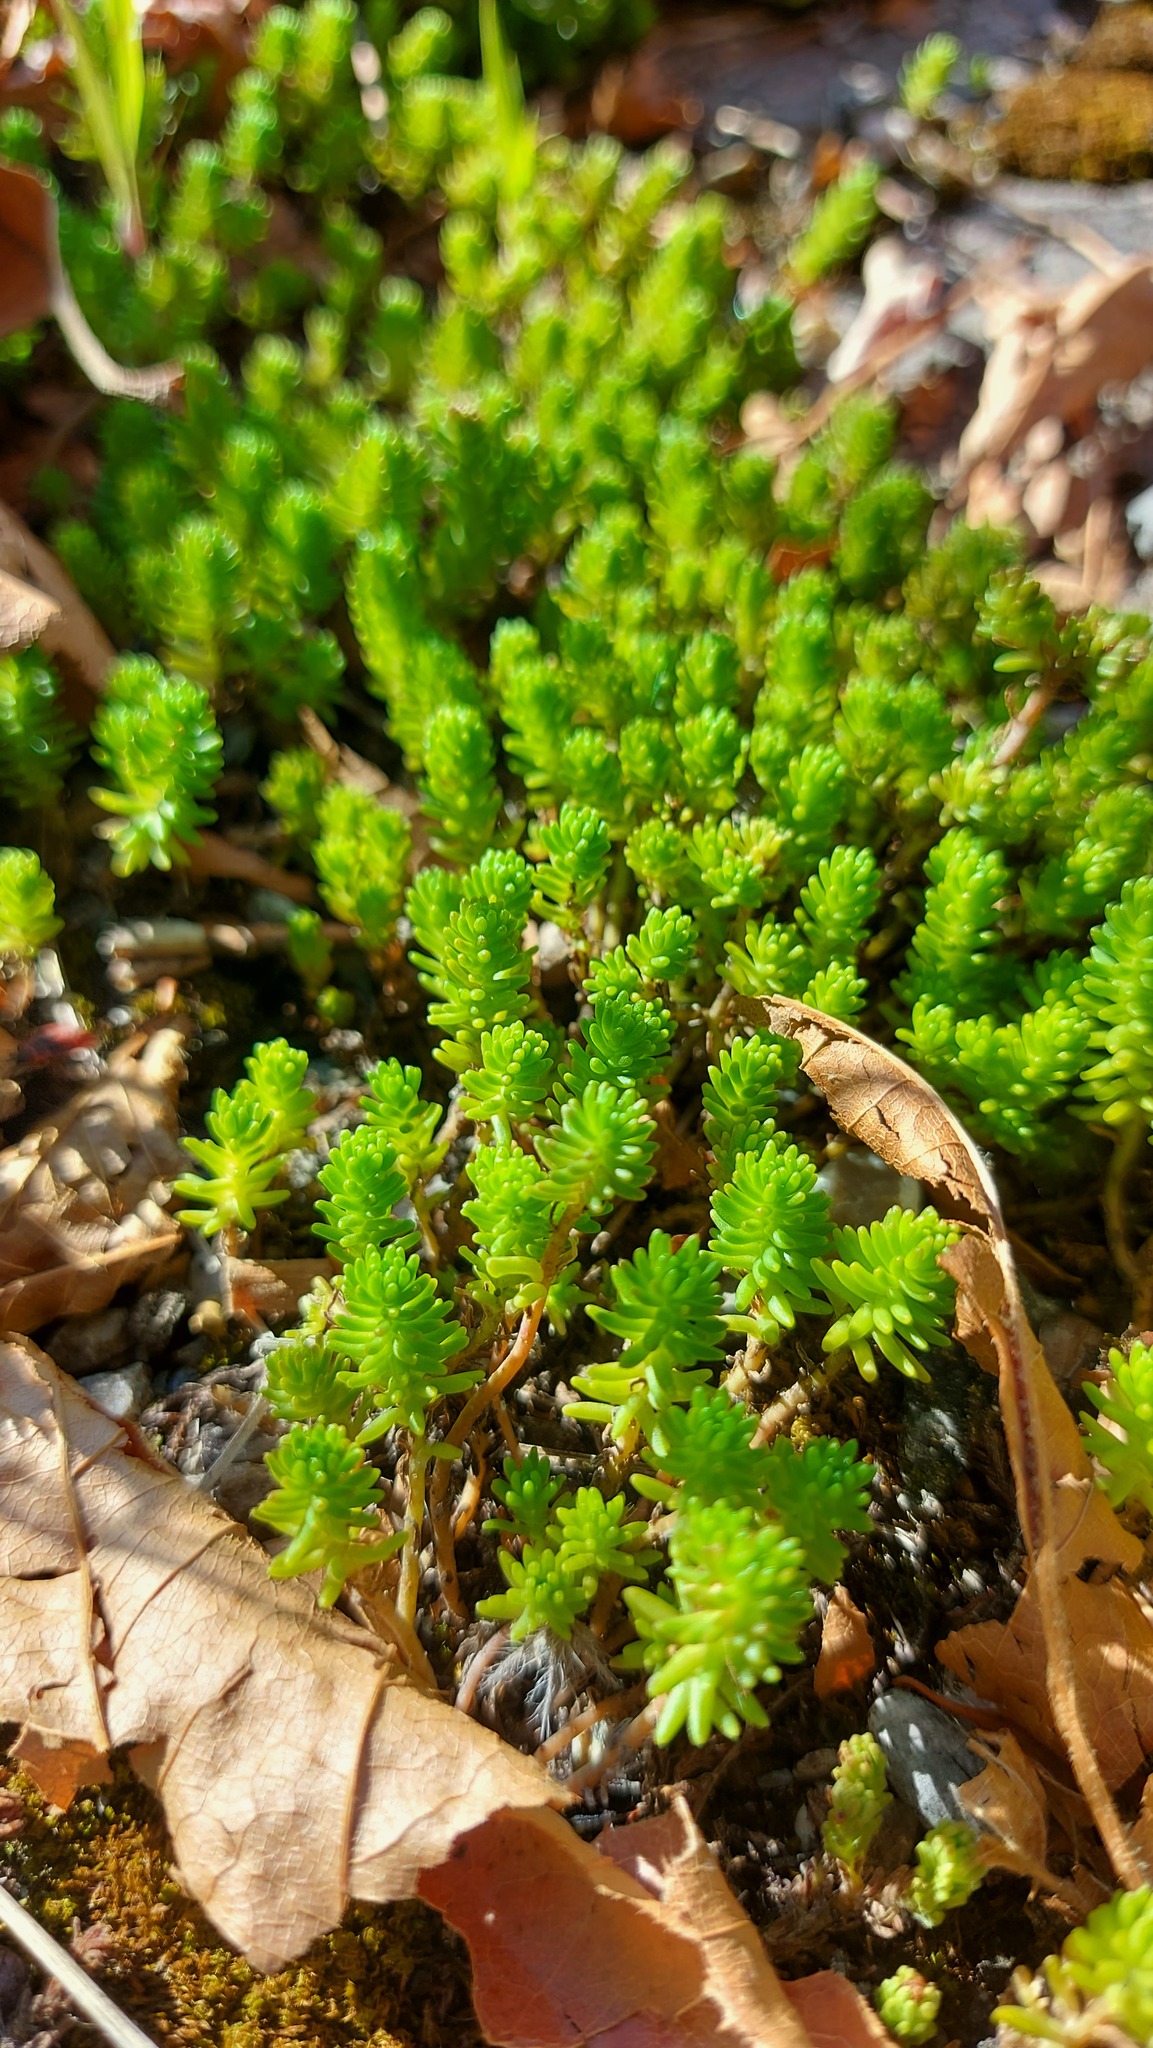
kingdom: Plantae
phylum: Tracheophyta
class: Magnoliopsida
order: Saxifragales
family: Crassulaceae
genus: Sedum
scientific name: Sedum sexangulare
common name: Tasteless stonecrop
